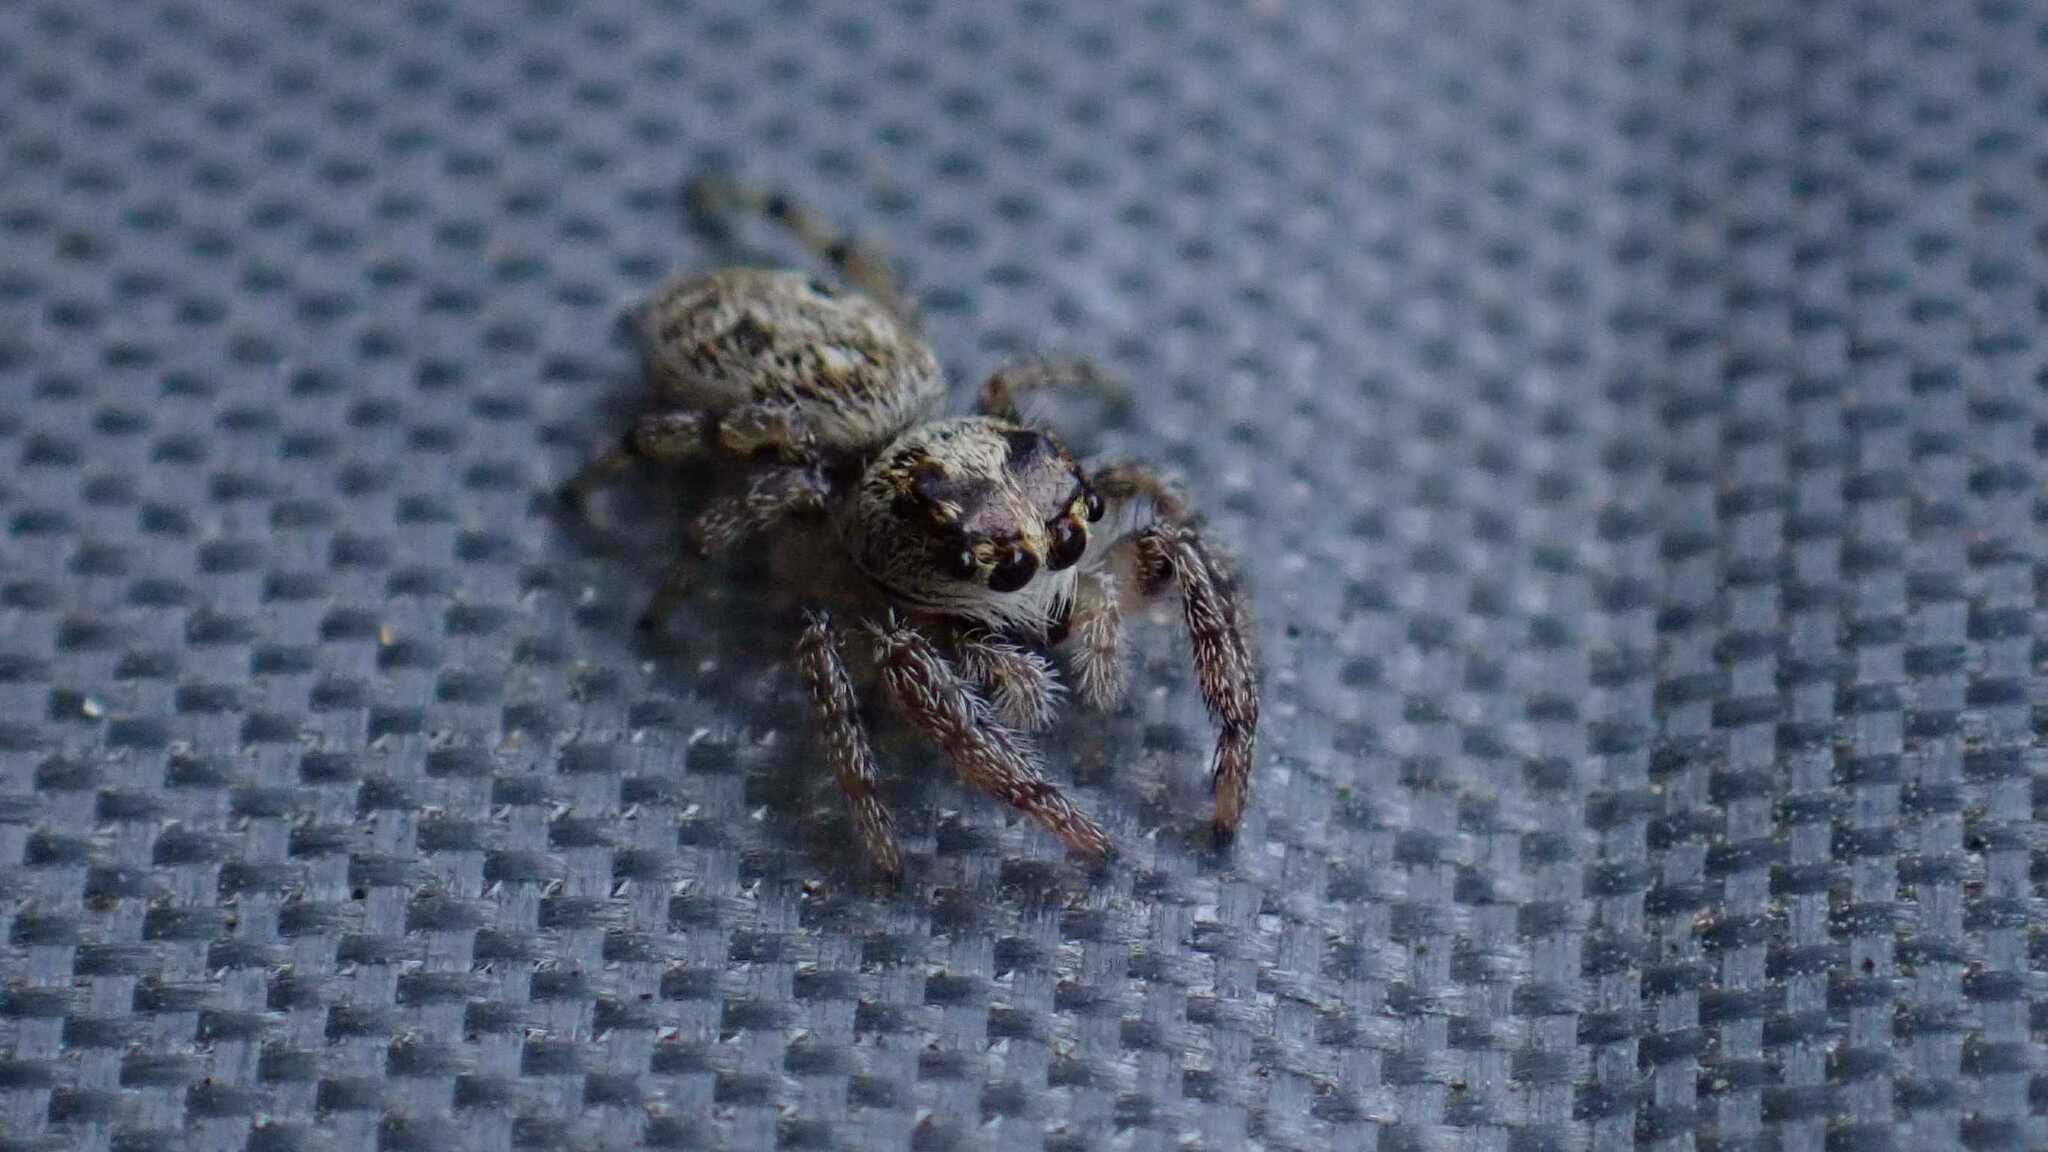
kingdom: Animalia
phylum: Arthropoda
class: Arachnida
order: Araneae
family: Salticidae
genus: Macaroeris
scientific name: Macaroeris nidicolens
